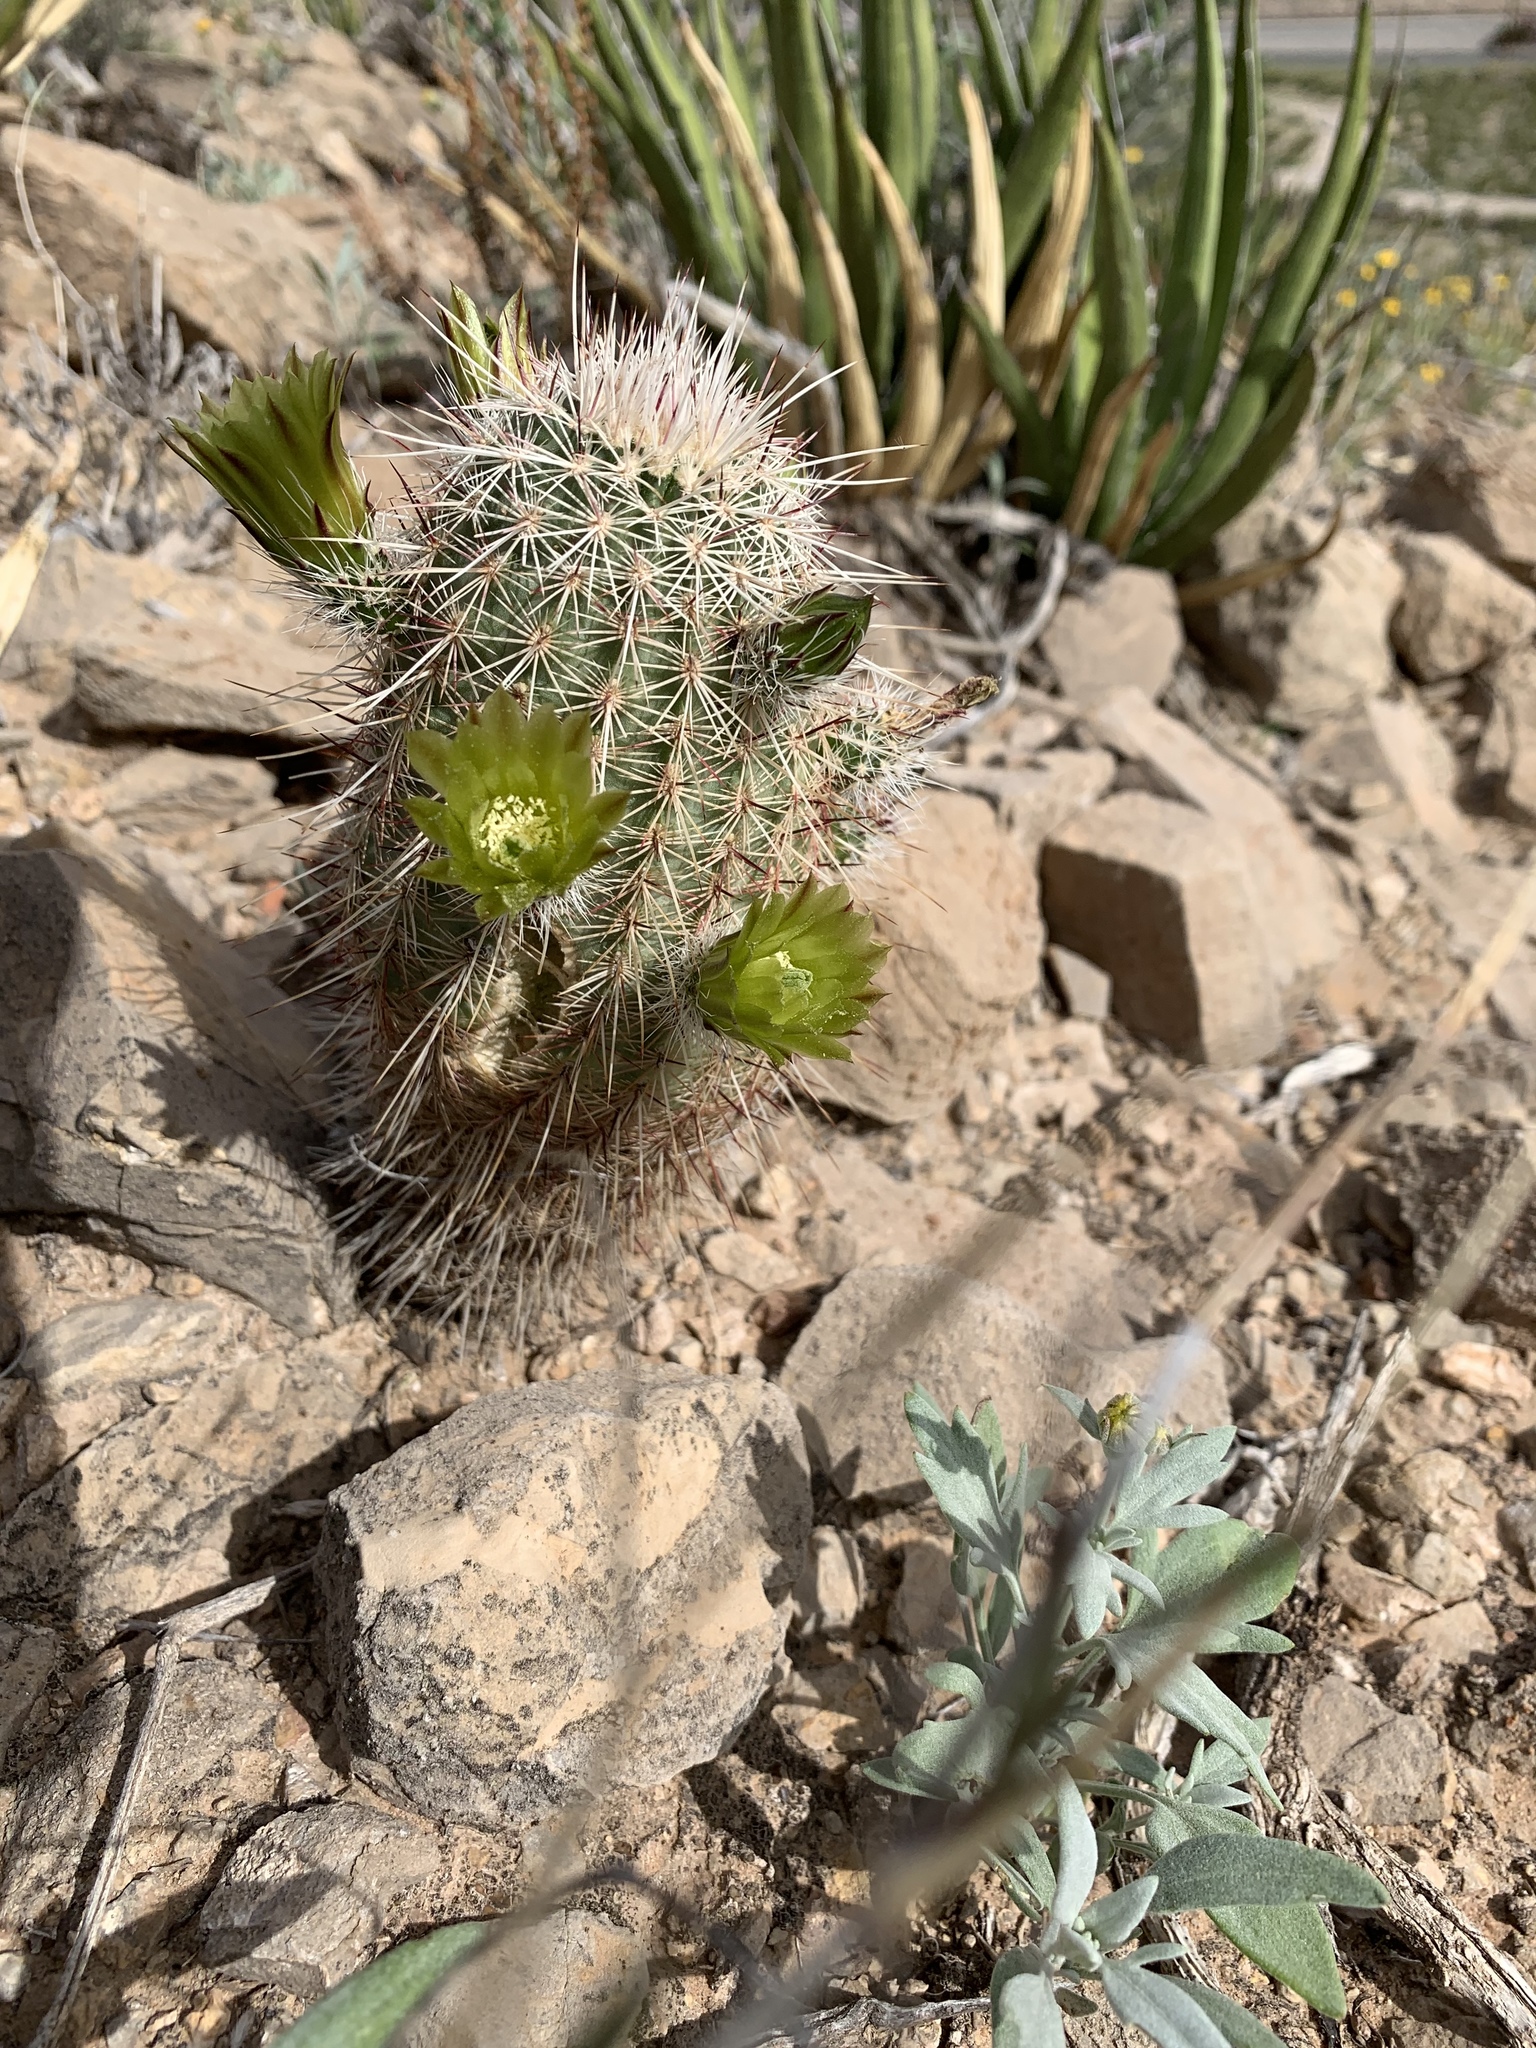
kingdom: Plantae
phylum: Tracheophyta
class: Magnoliopsida
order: Caryophyllales
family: Cactaceae
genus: Echinocereus
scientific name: Echinocereus viridiflorus
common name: Nylon hedgehog cactus
